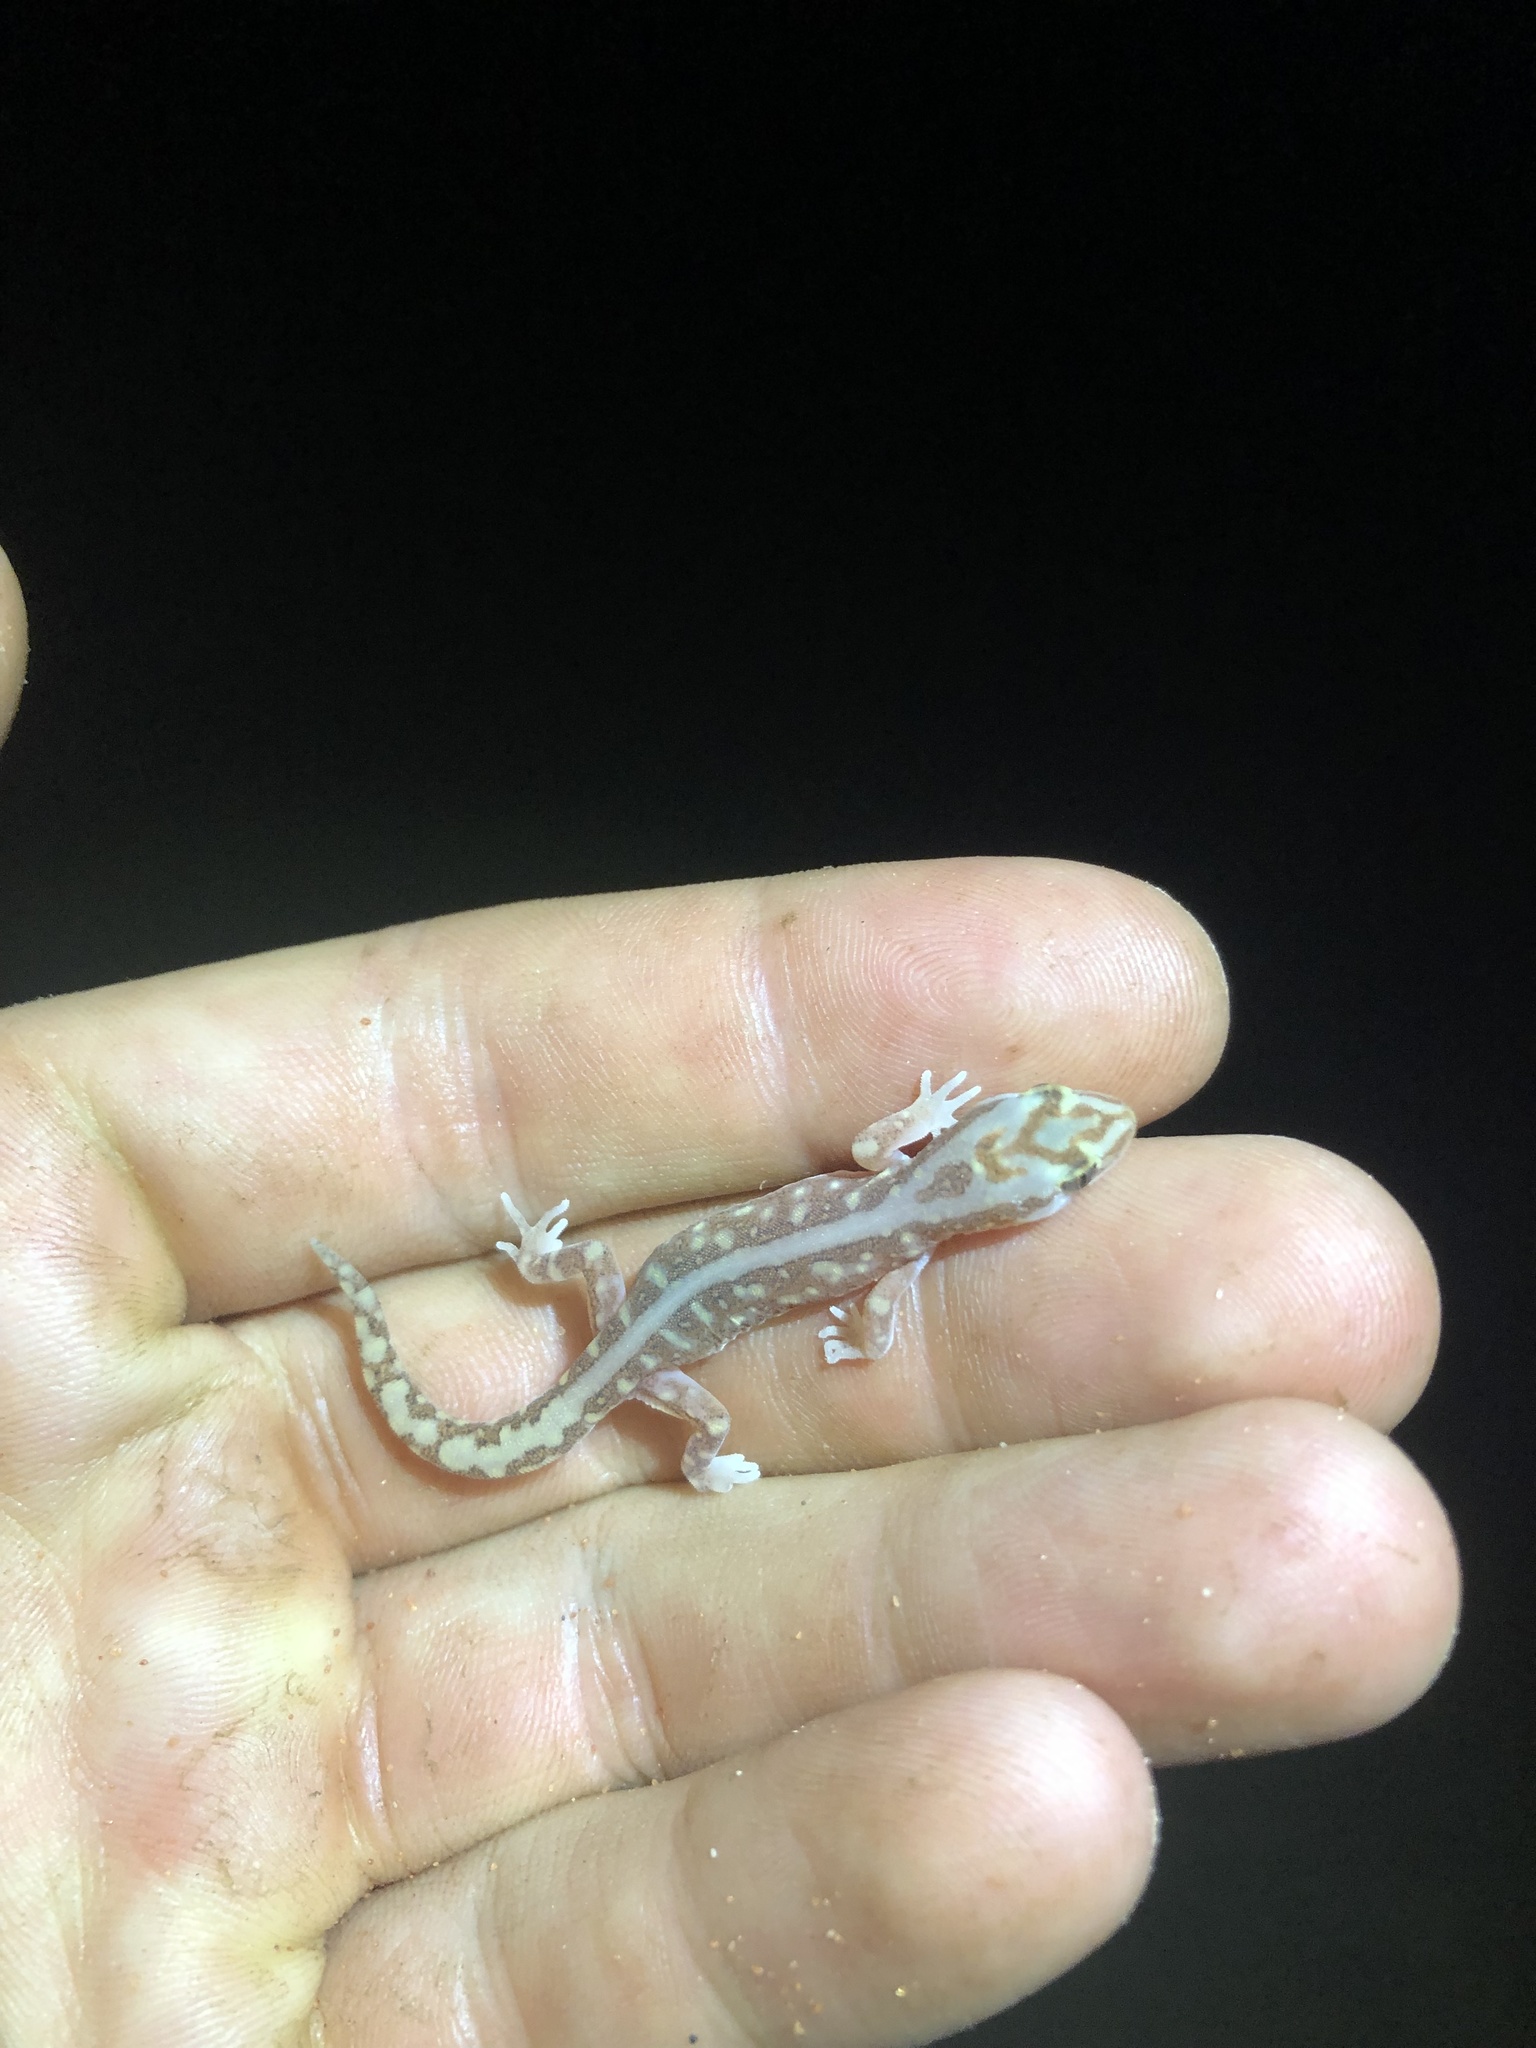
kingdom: Animalia
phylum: Chordata
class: Squamata
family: Diplodactylidae
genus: Lucasium
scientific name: Lucasium microplax
